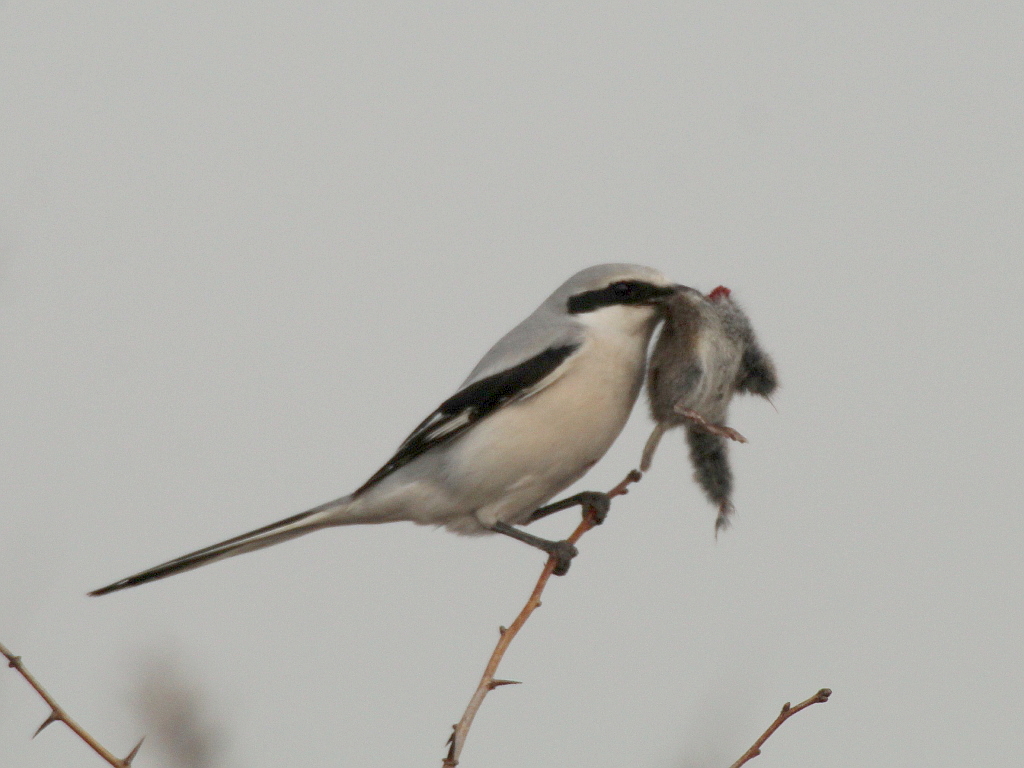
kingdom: Animalia
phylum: Chordata
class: Aves
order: Passeriformes
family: Laniidae
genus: Lanius
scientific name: Lanius sphenocercus
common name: Chinese grey shrike
